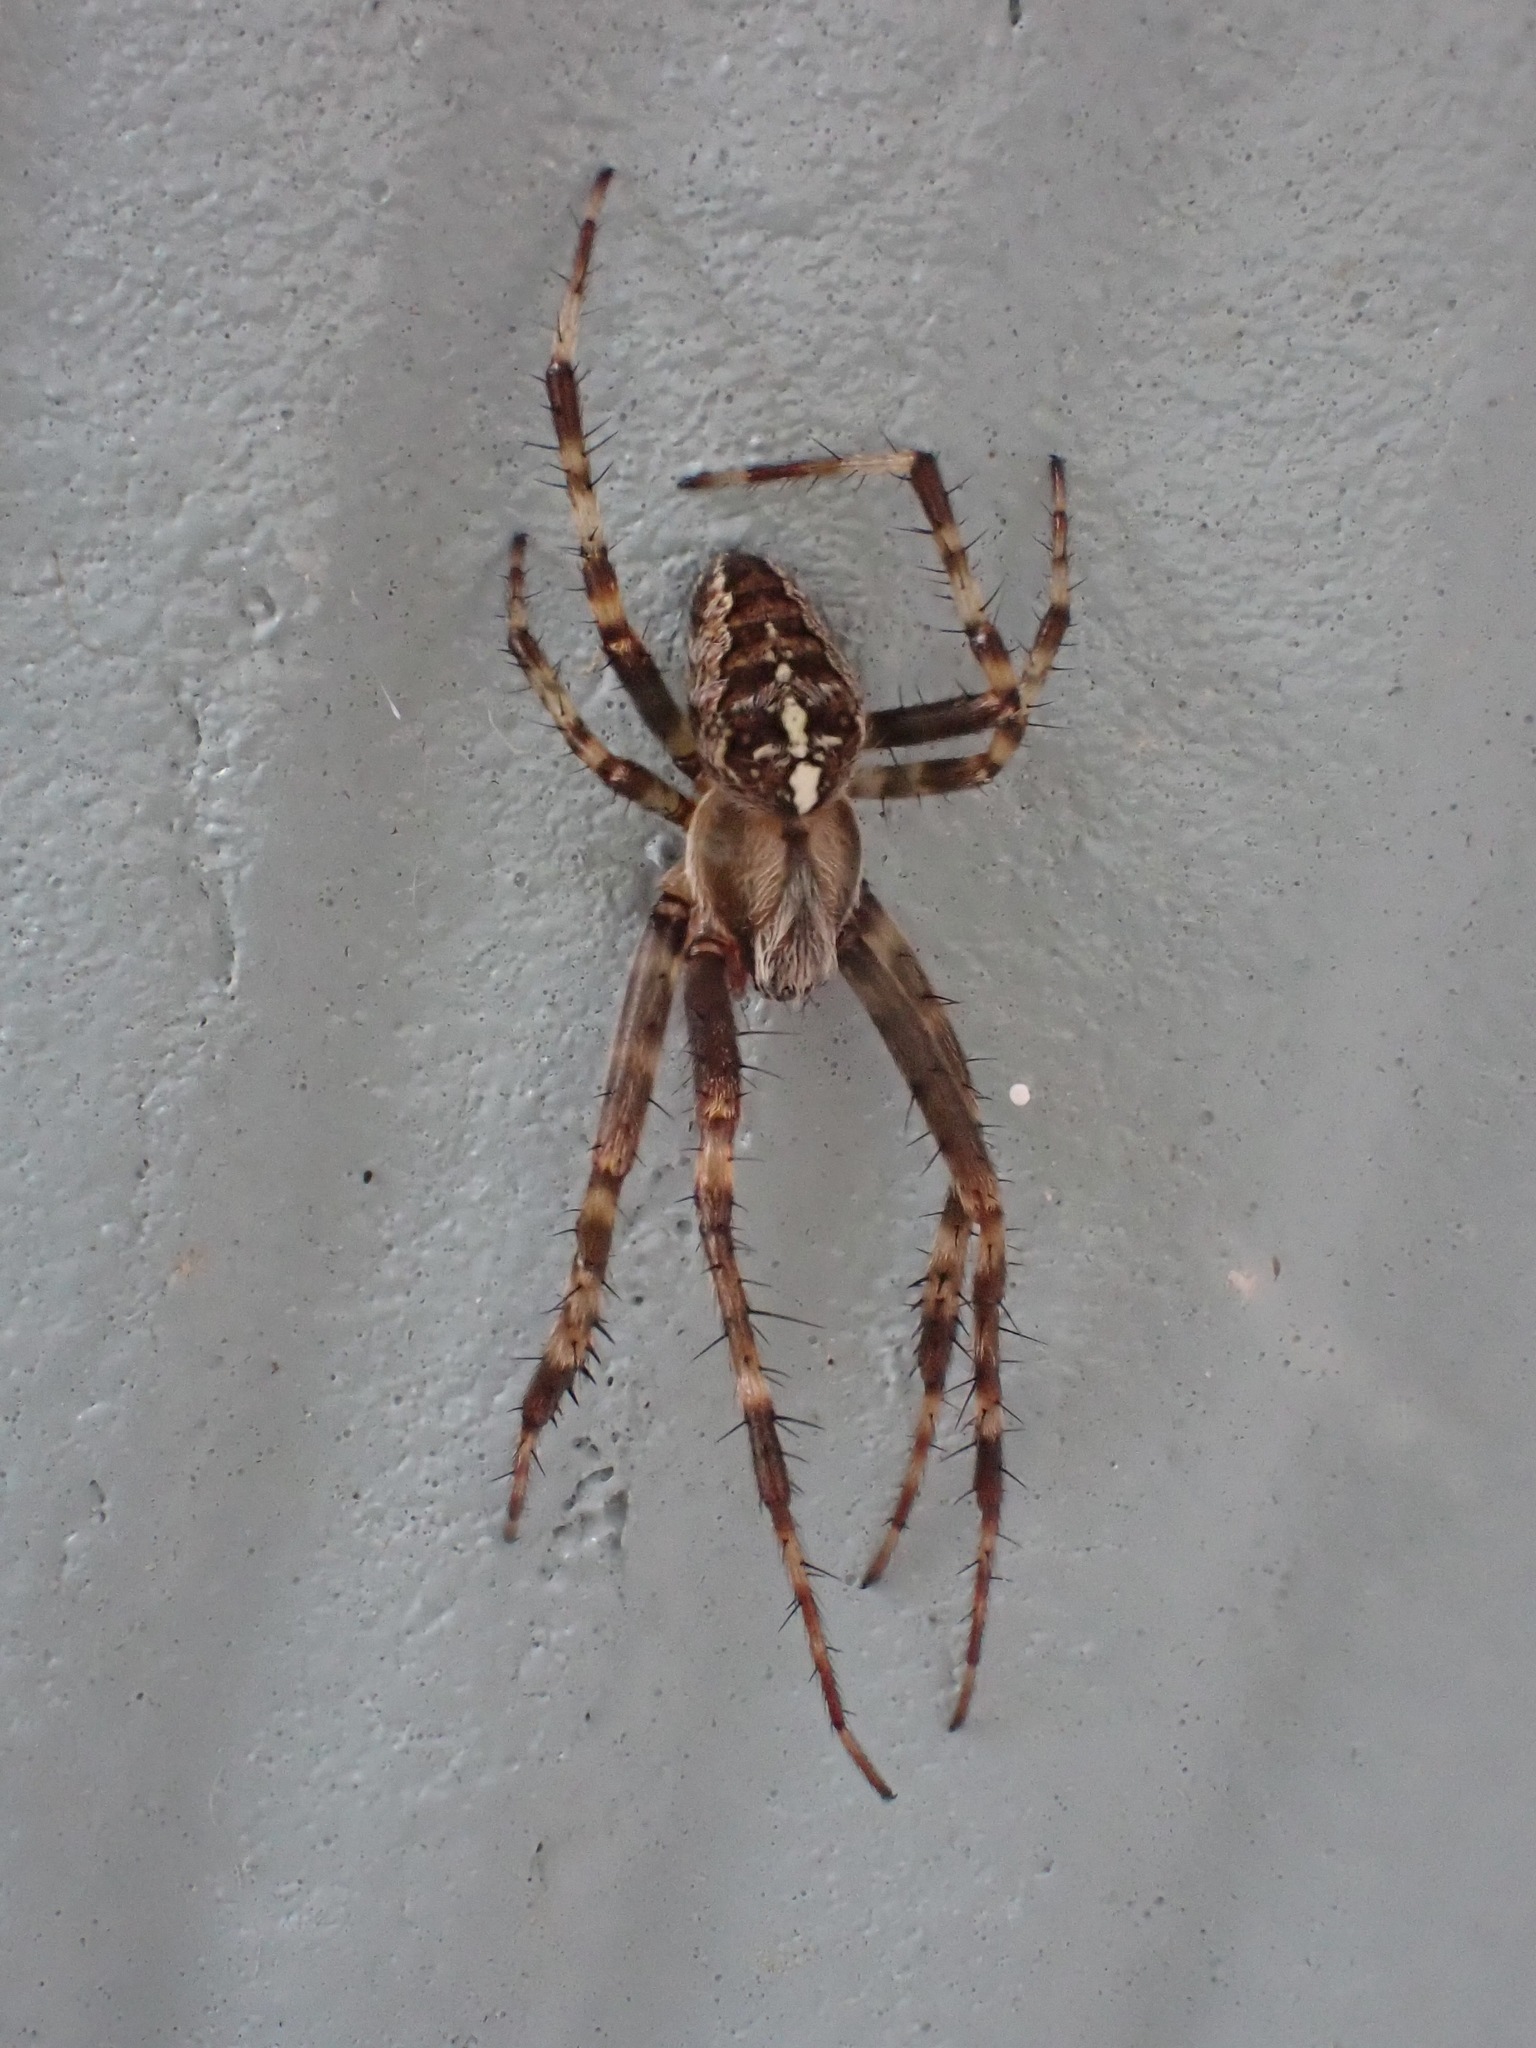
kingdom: Animalia
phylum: Arthropoda
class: Arachnida
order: Araneae
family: Araneidae
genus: Araneus
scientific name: Araneus diadematus
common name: Cross orbweaver
